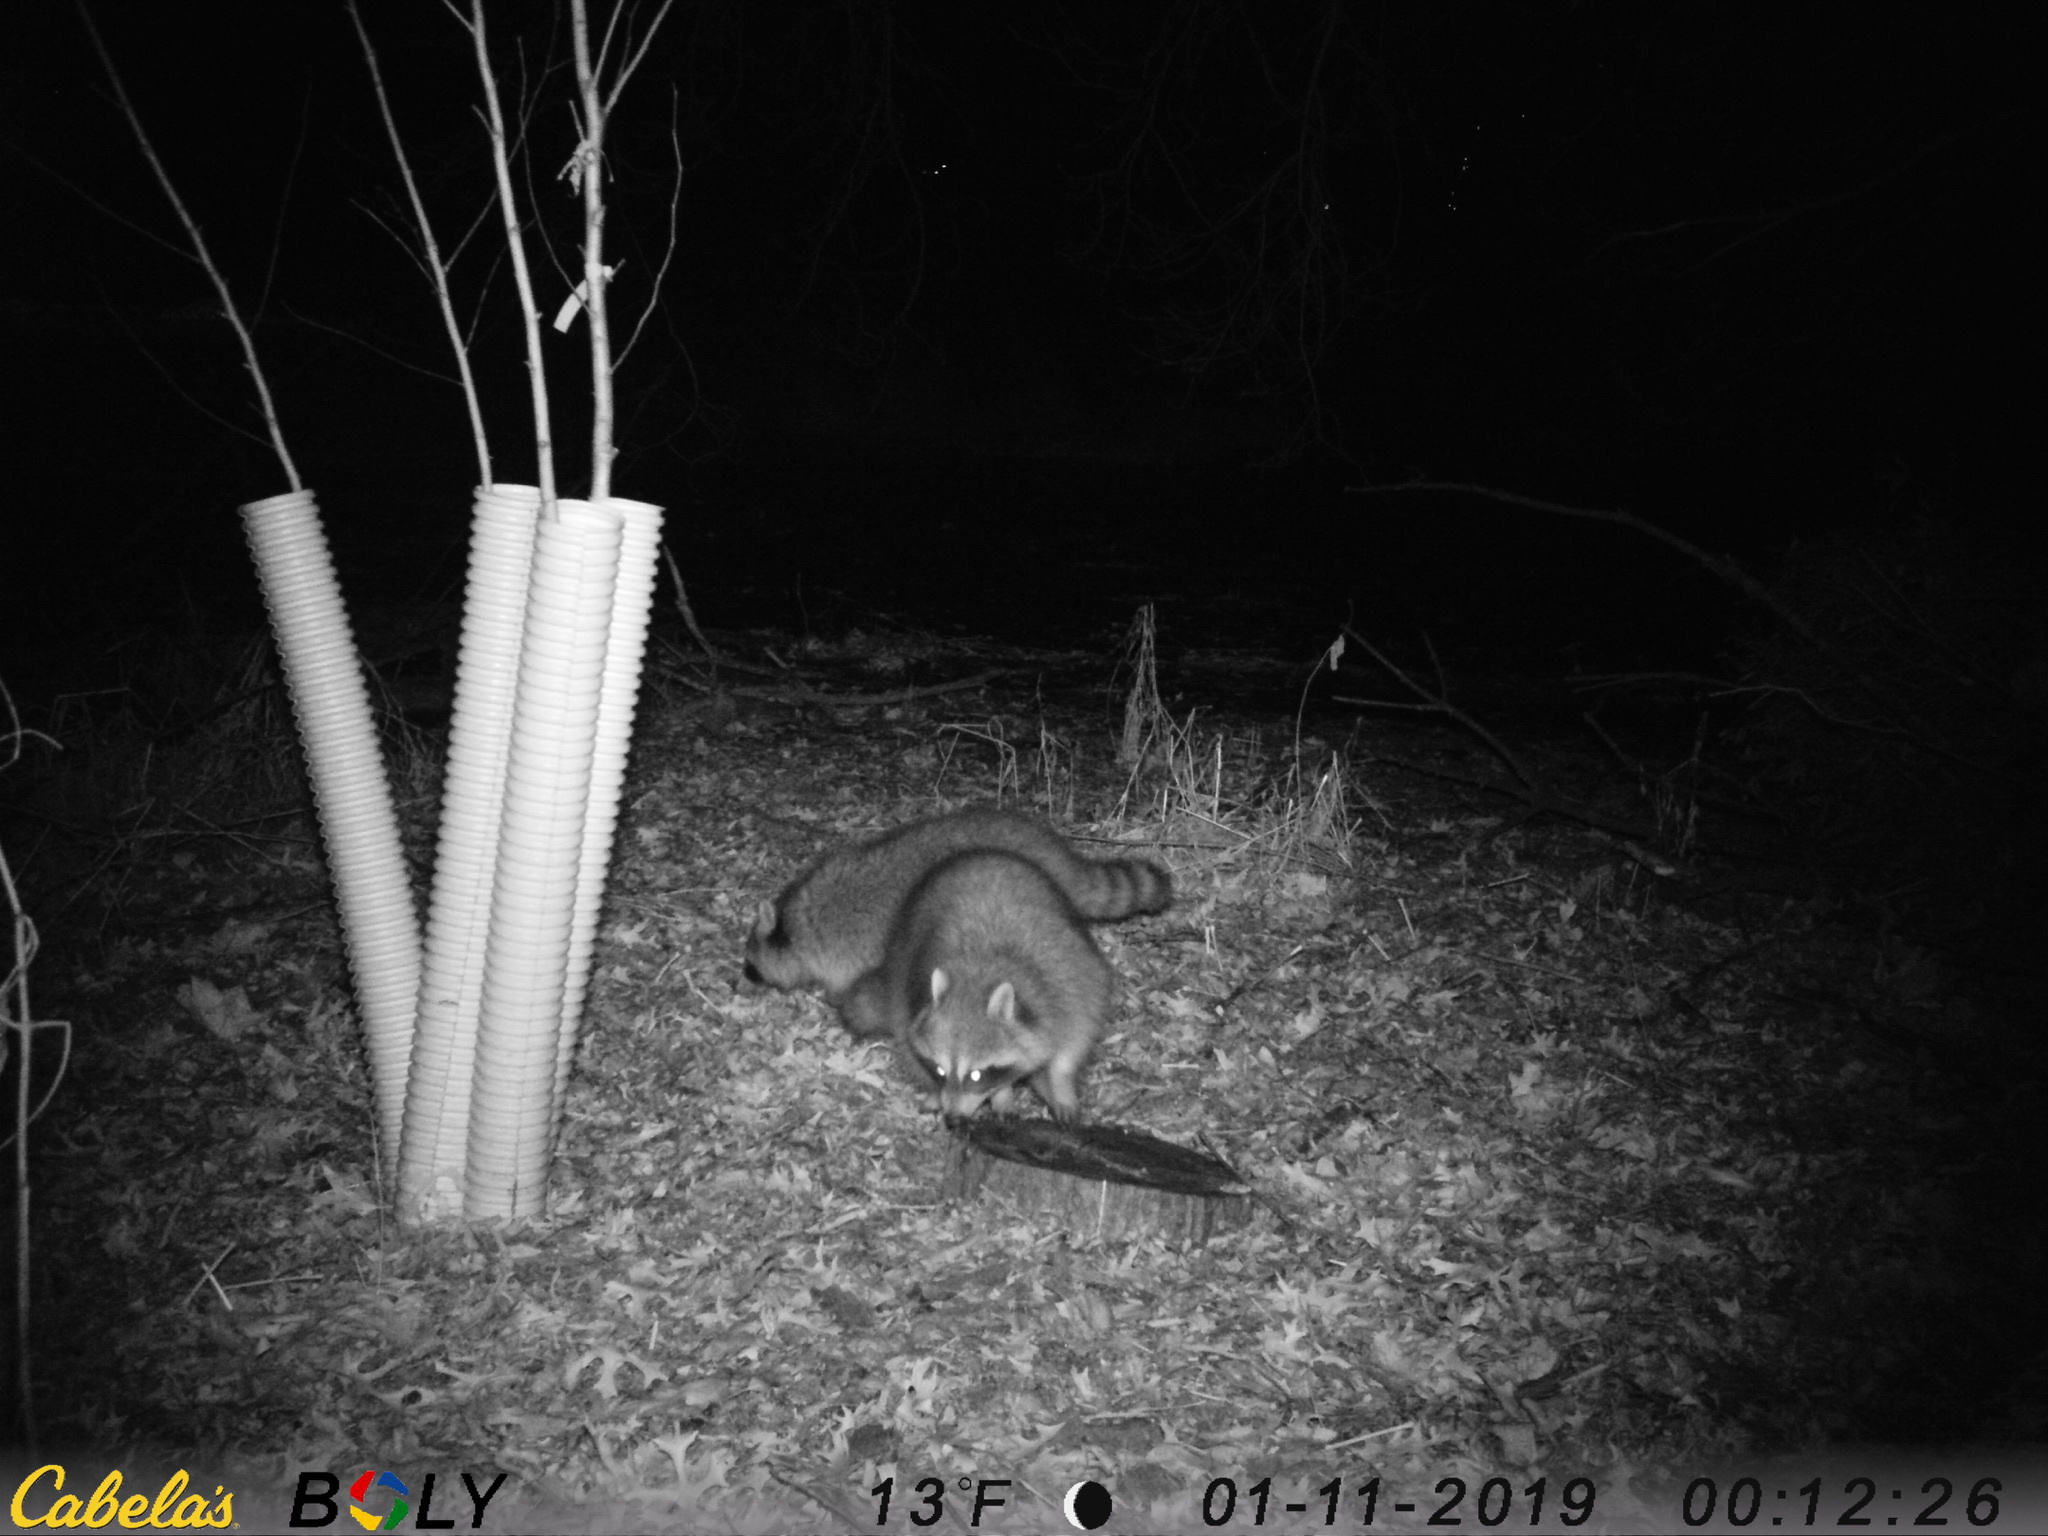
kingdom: Animalia
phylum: Chordata
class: Mammalia
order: Carnivora
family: Procyonidae
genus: Procyon
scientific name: Procyon lotor
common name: Raccoon
